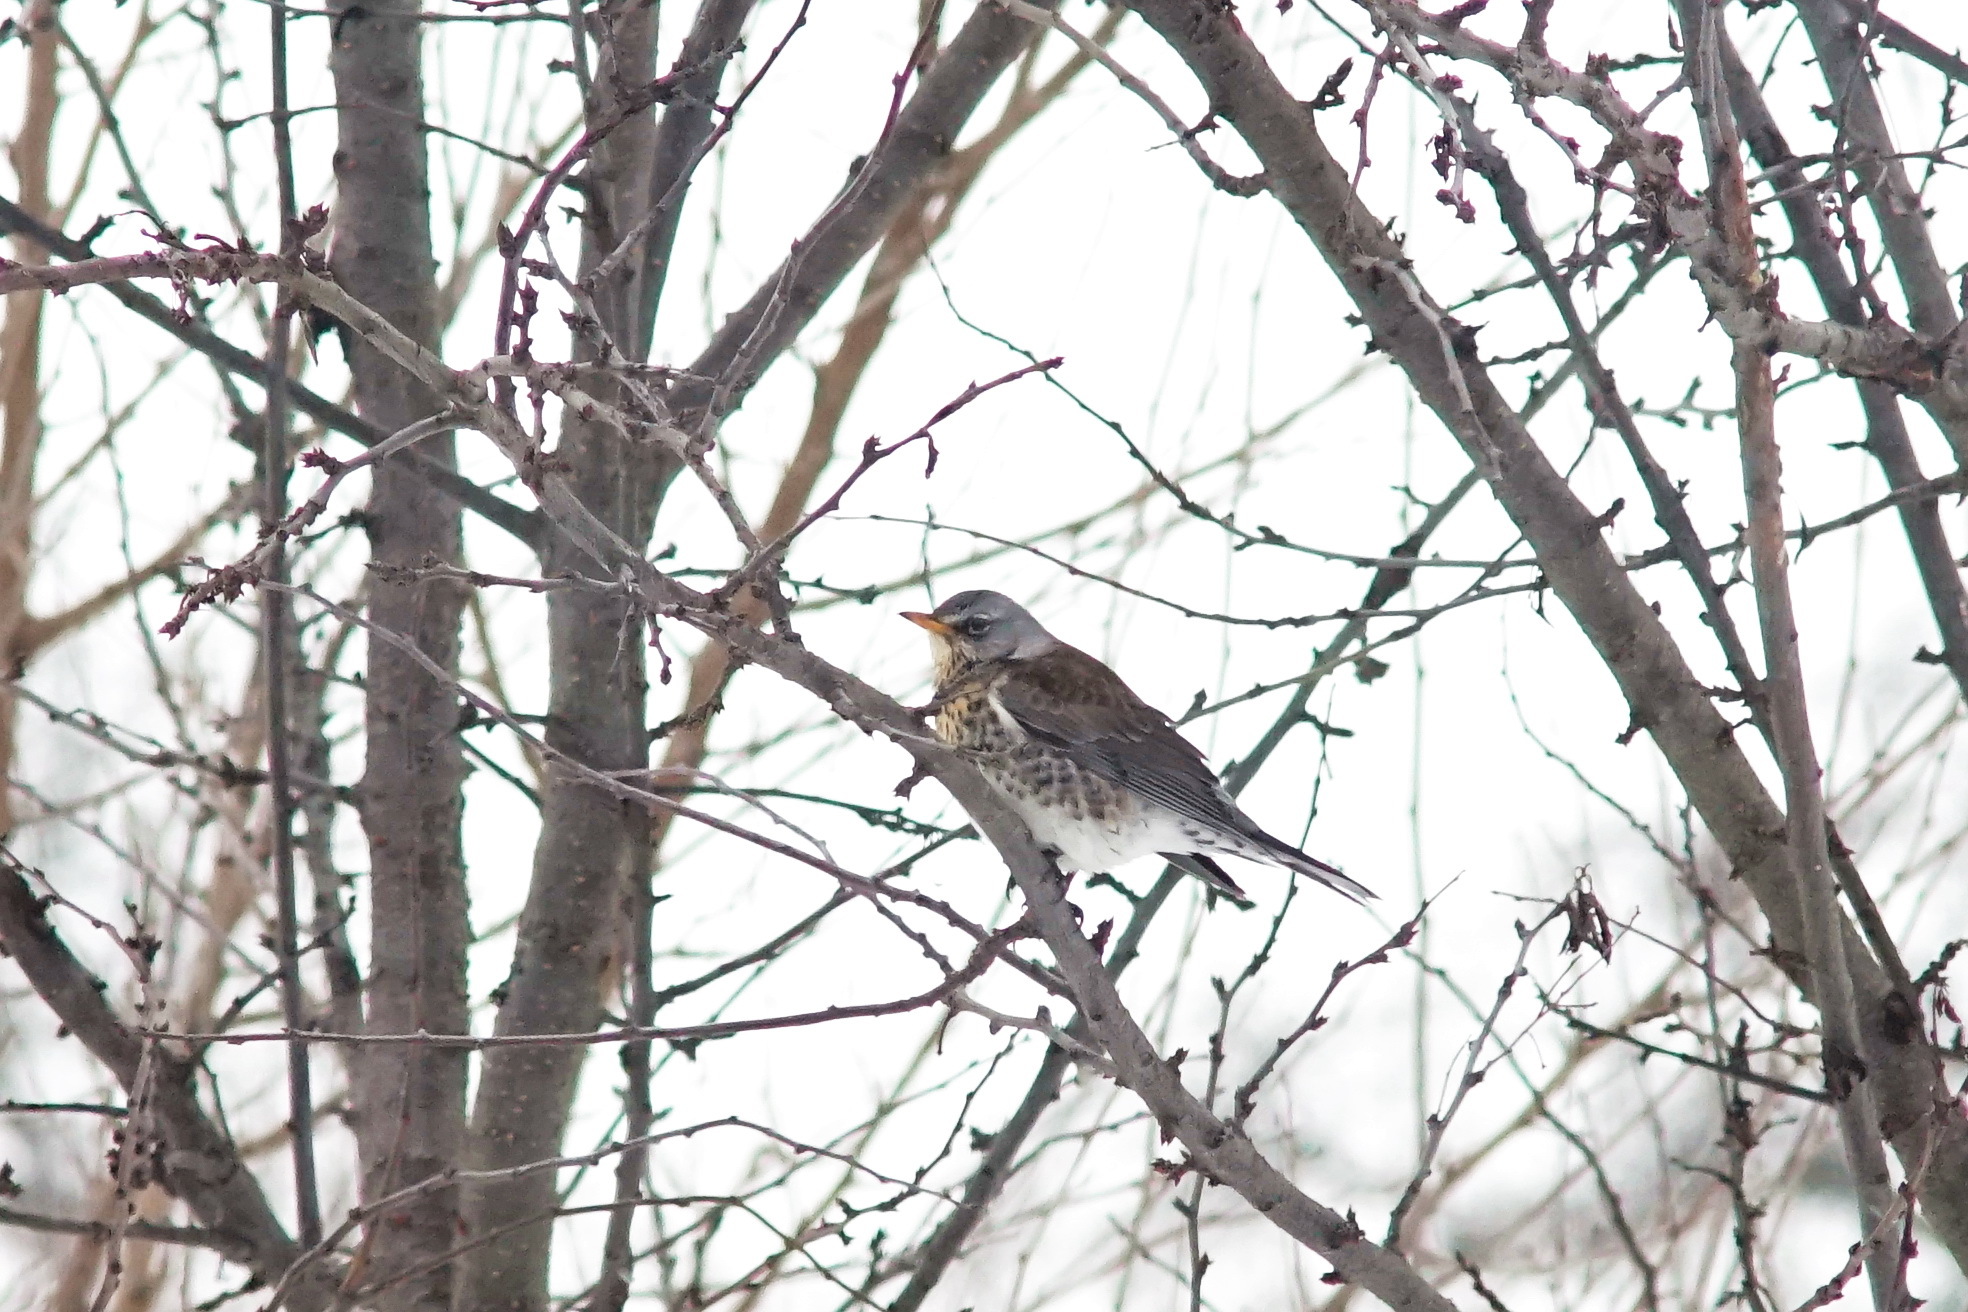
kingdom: Animalia
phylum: Chordata
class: Aves
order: Passeriformes
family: Turdidae
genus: Turdus
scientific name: Turdus pilaris
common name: Fieldfare
